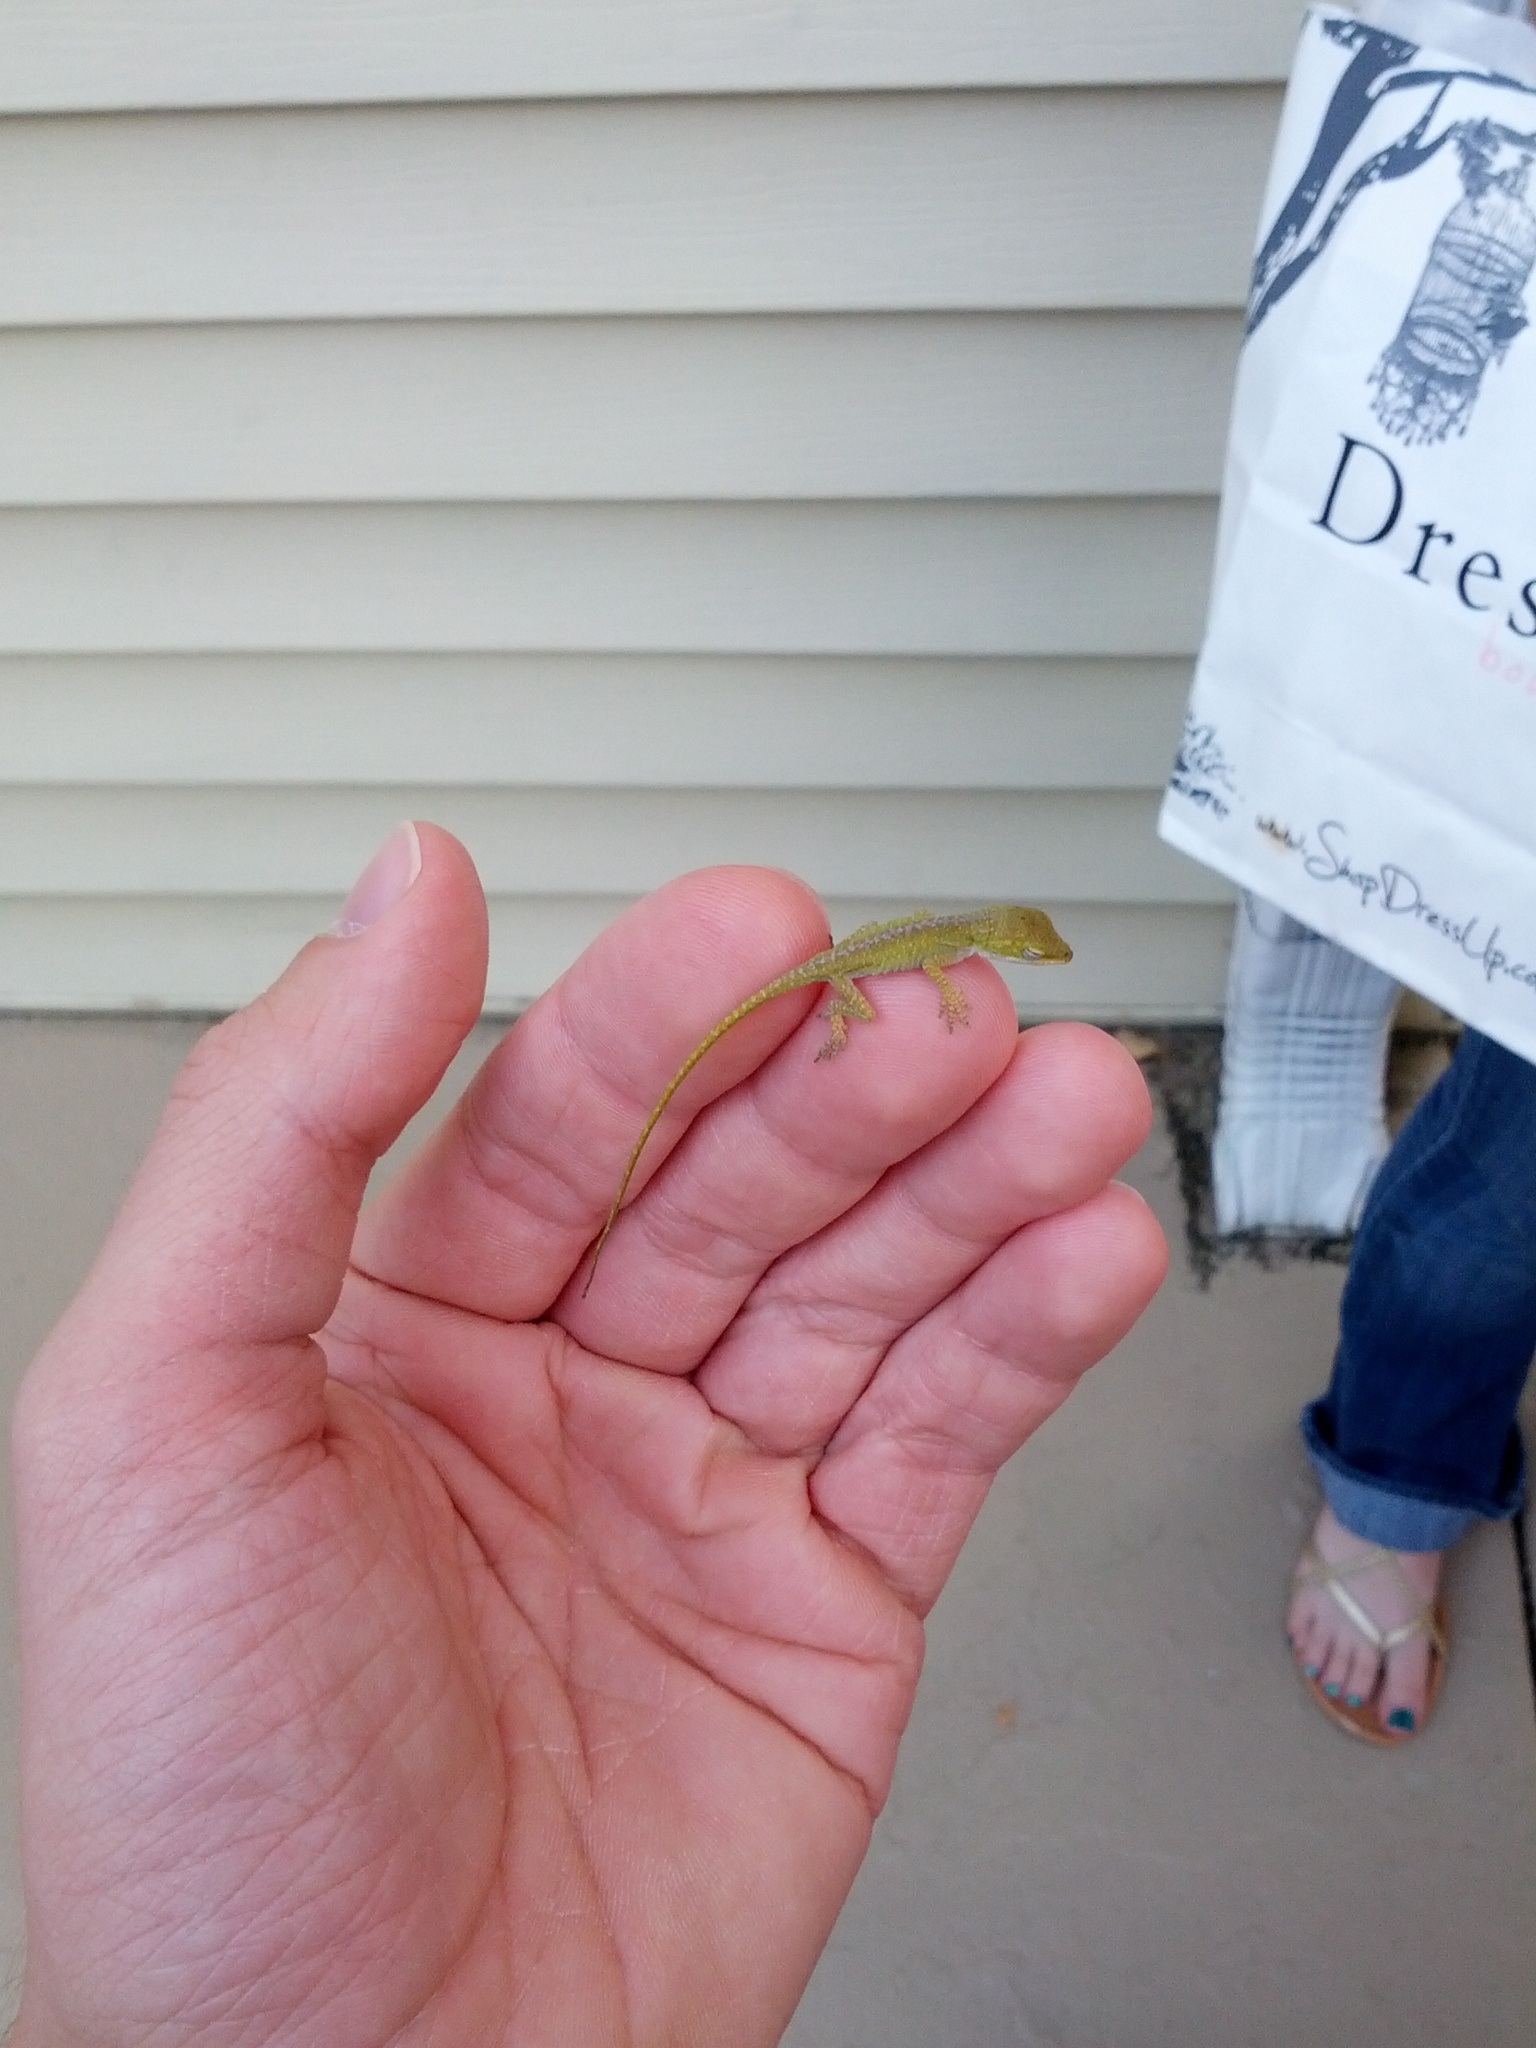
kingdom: Animalia
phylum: Chordata
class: Squamata
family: Dactyloidae
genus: Anolis
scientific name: Anolis carolinensis
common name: Green anole
